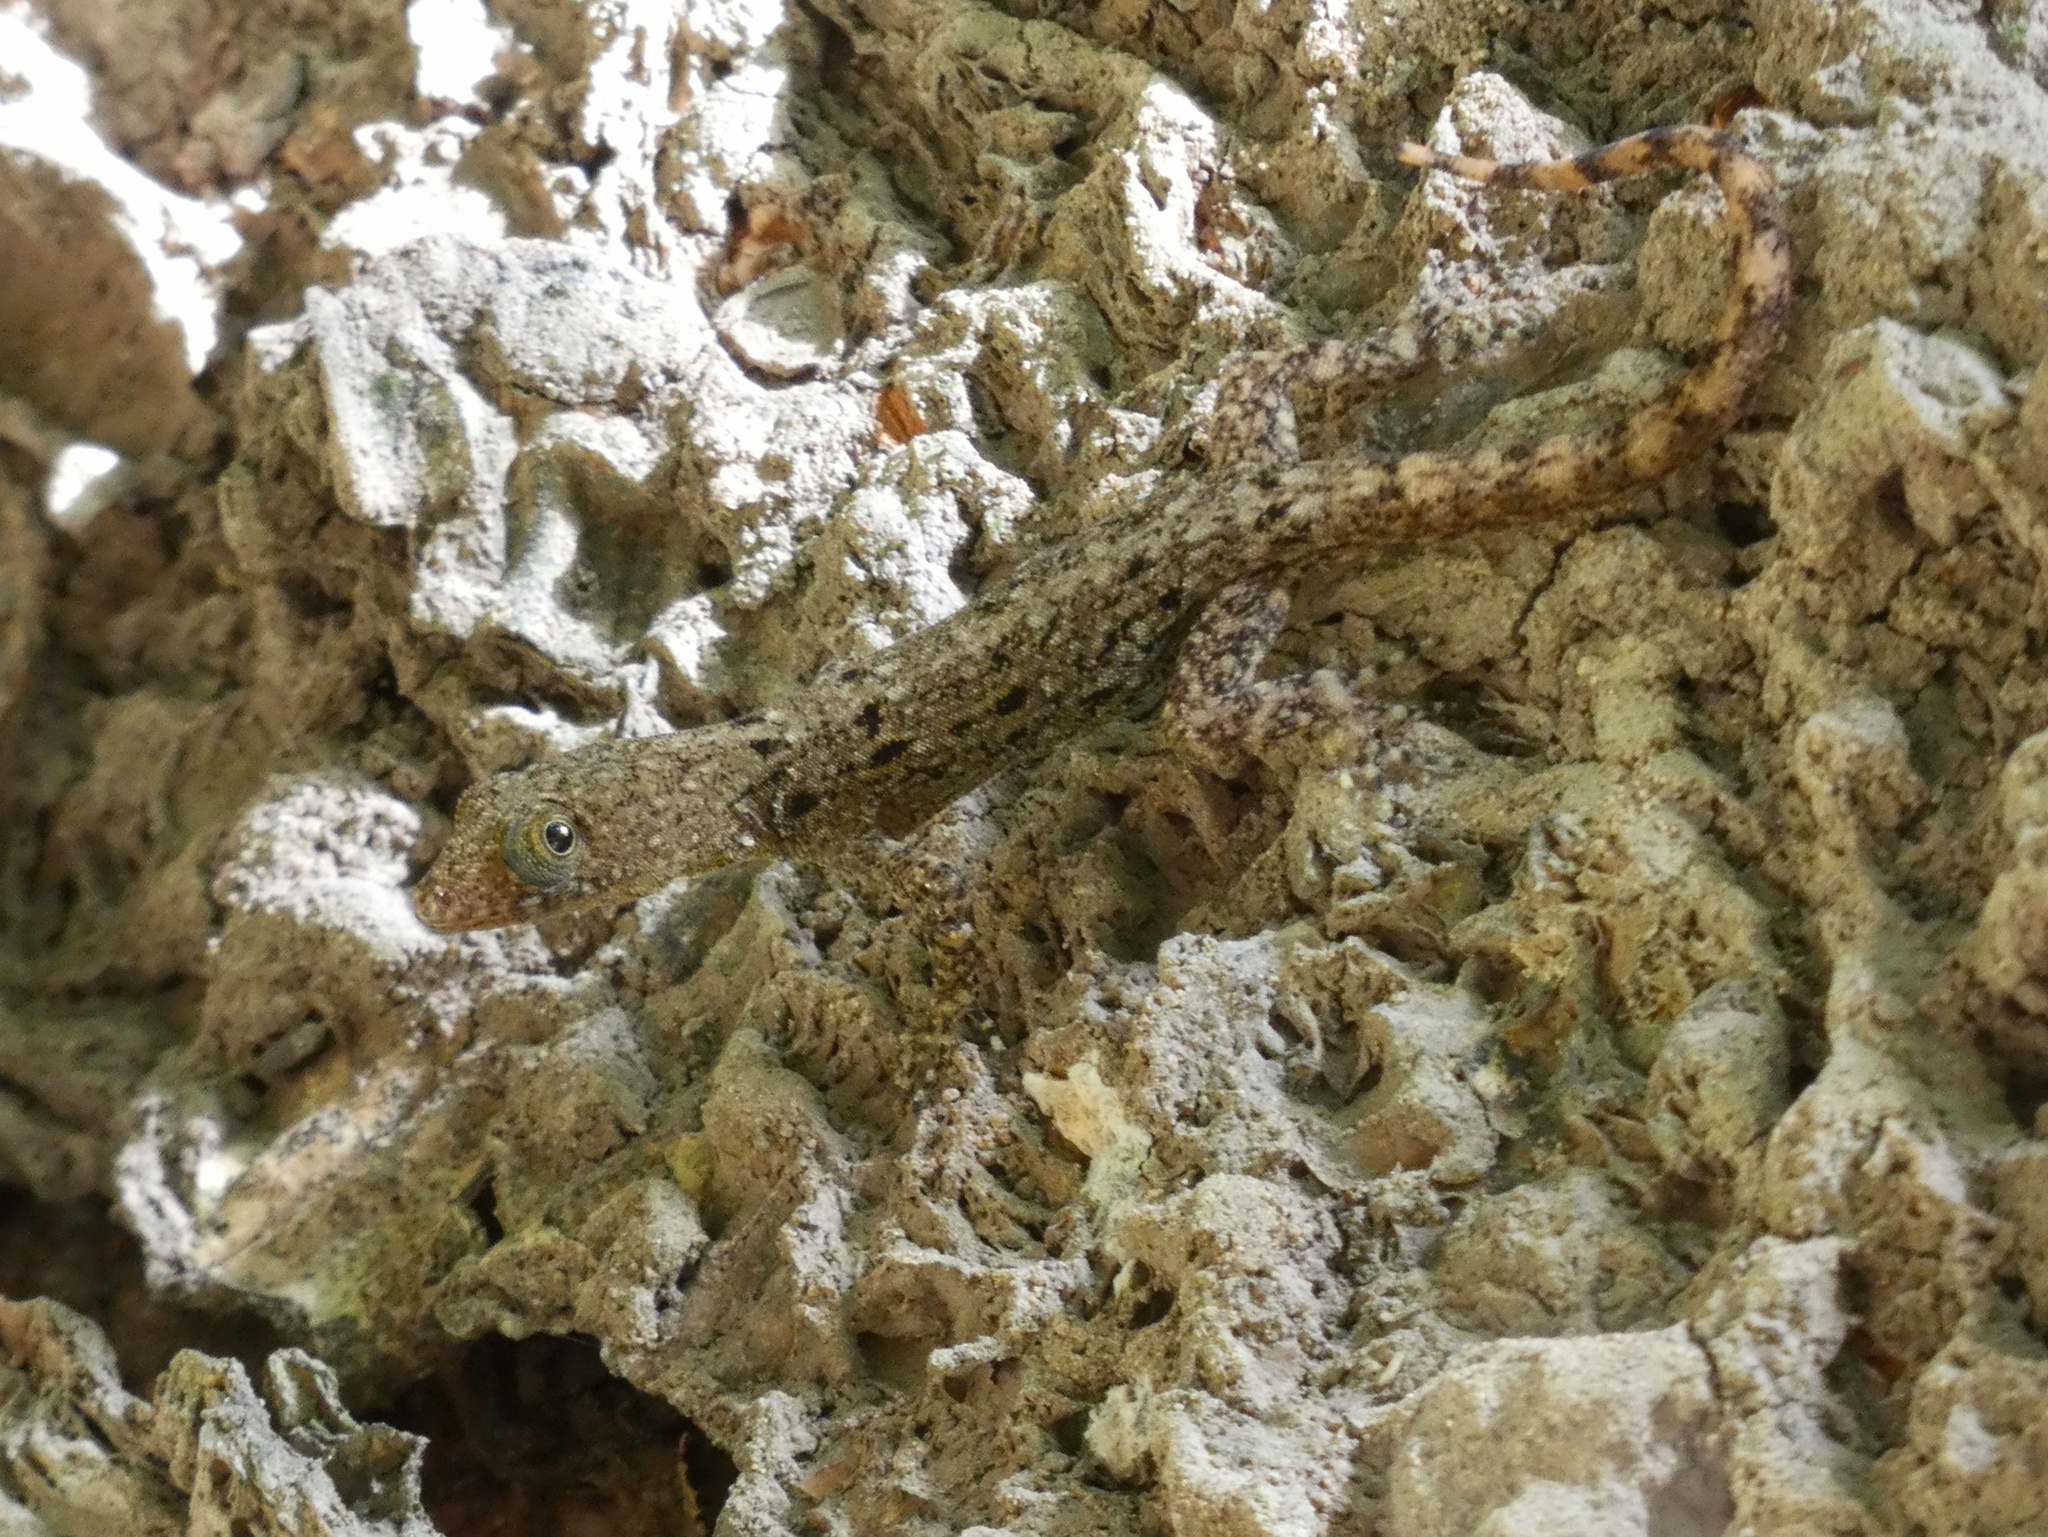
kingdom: Animalia
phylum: Chordata
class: Squamata
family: Sphaerodactylidae
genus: Gonatodes
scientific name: Gonatodes albogularis
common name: Yellow-headed gecko
